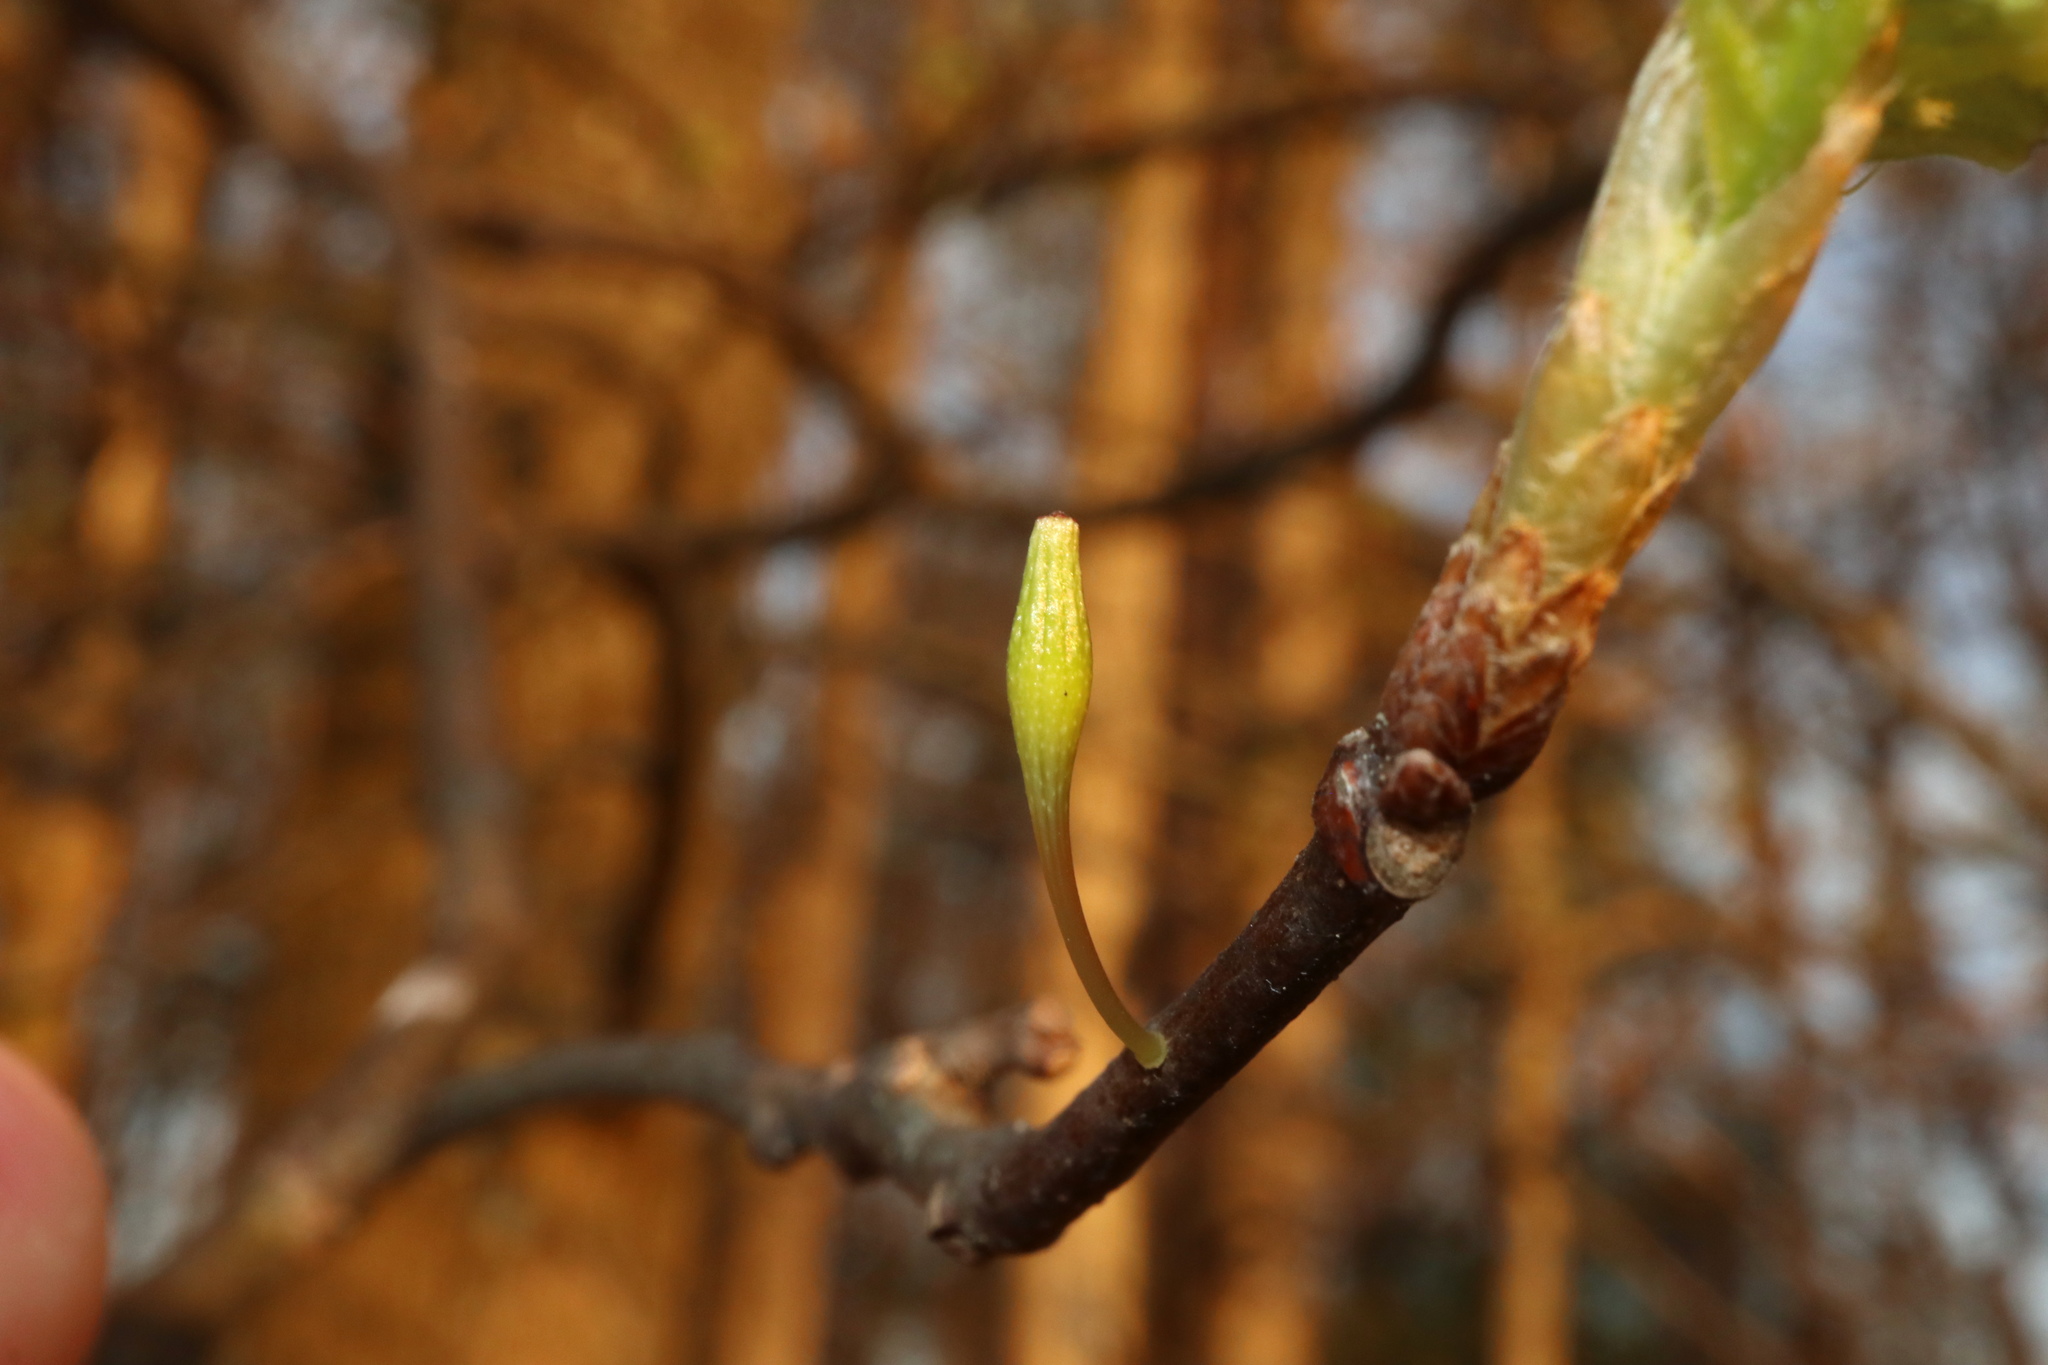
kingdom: Animalia
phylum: Arthropoda
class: Insecta
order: Hymenoptera
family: Cynipidae
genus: Callirhytis
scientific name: Callirhytis
